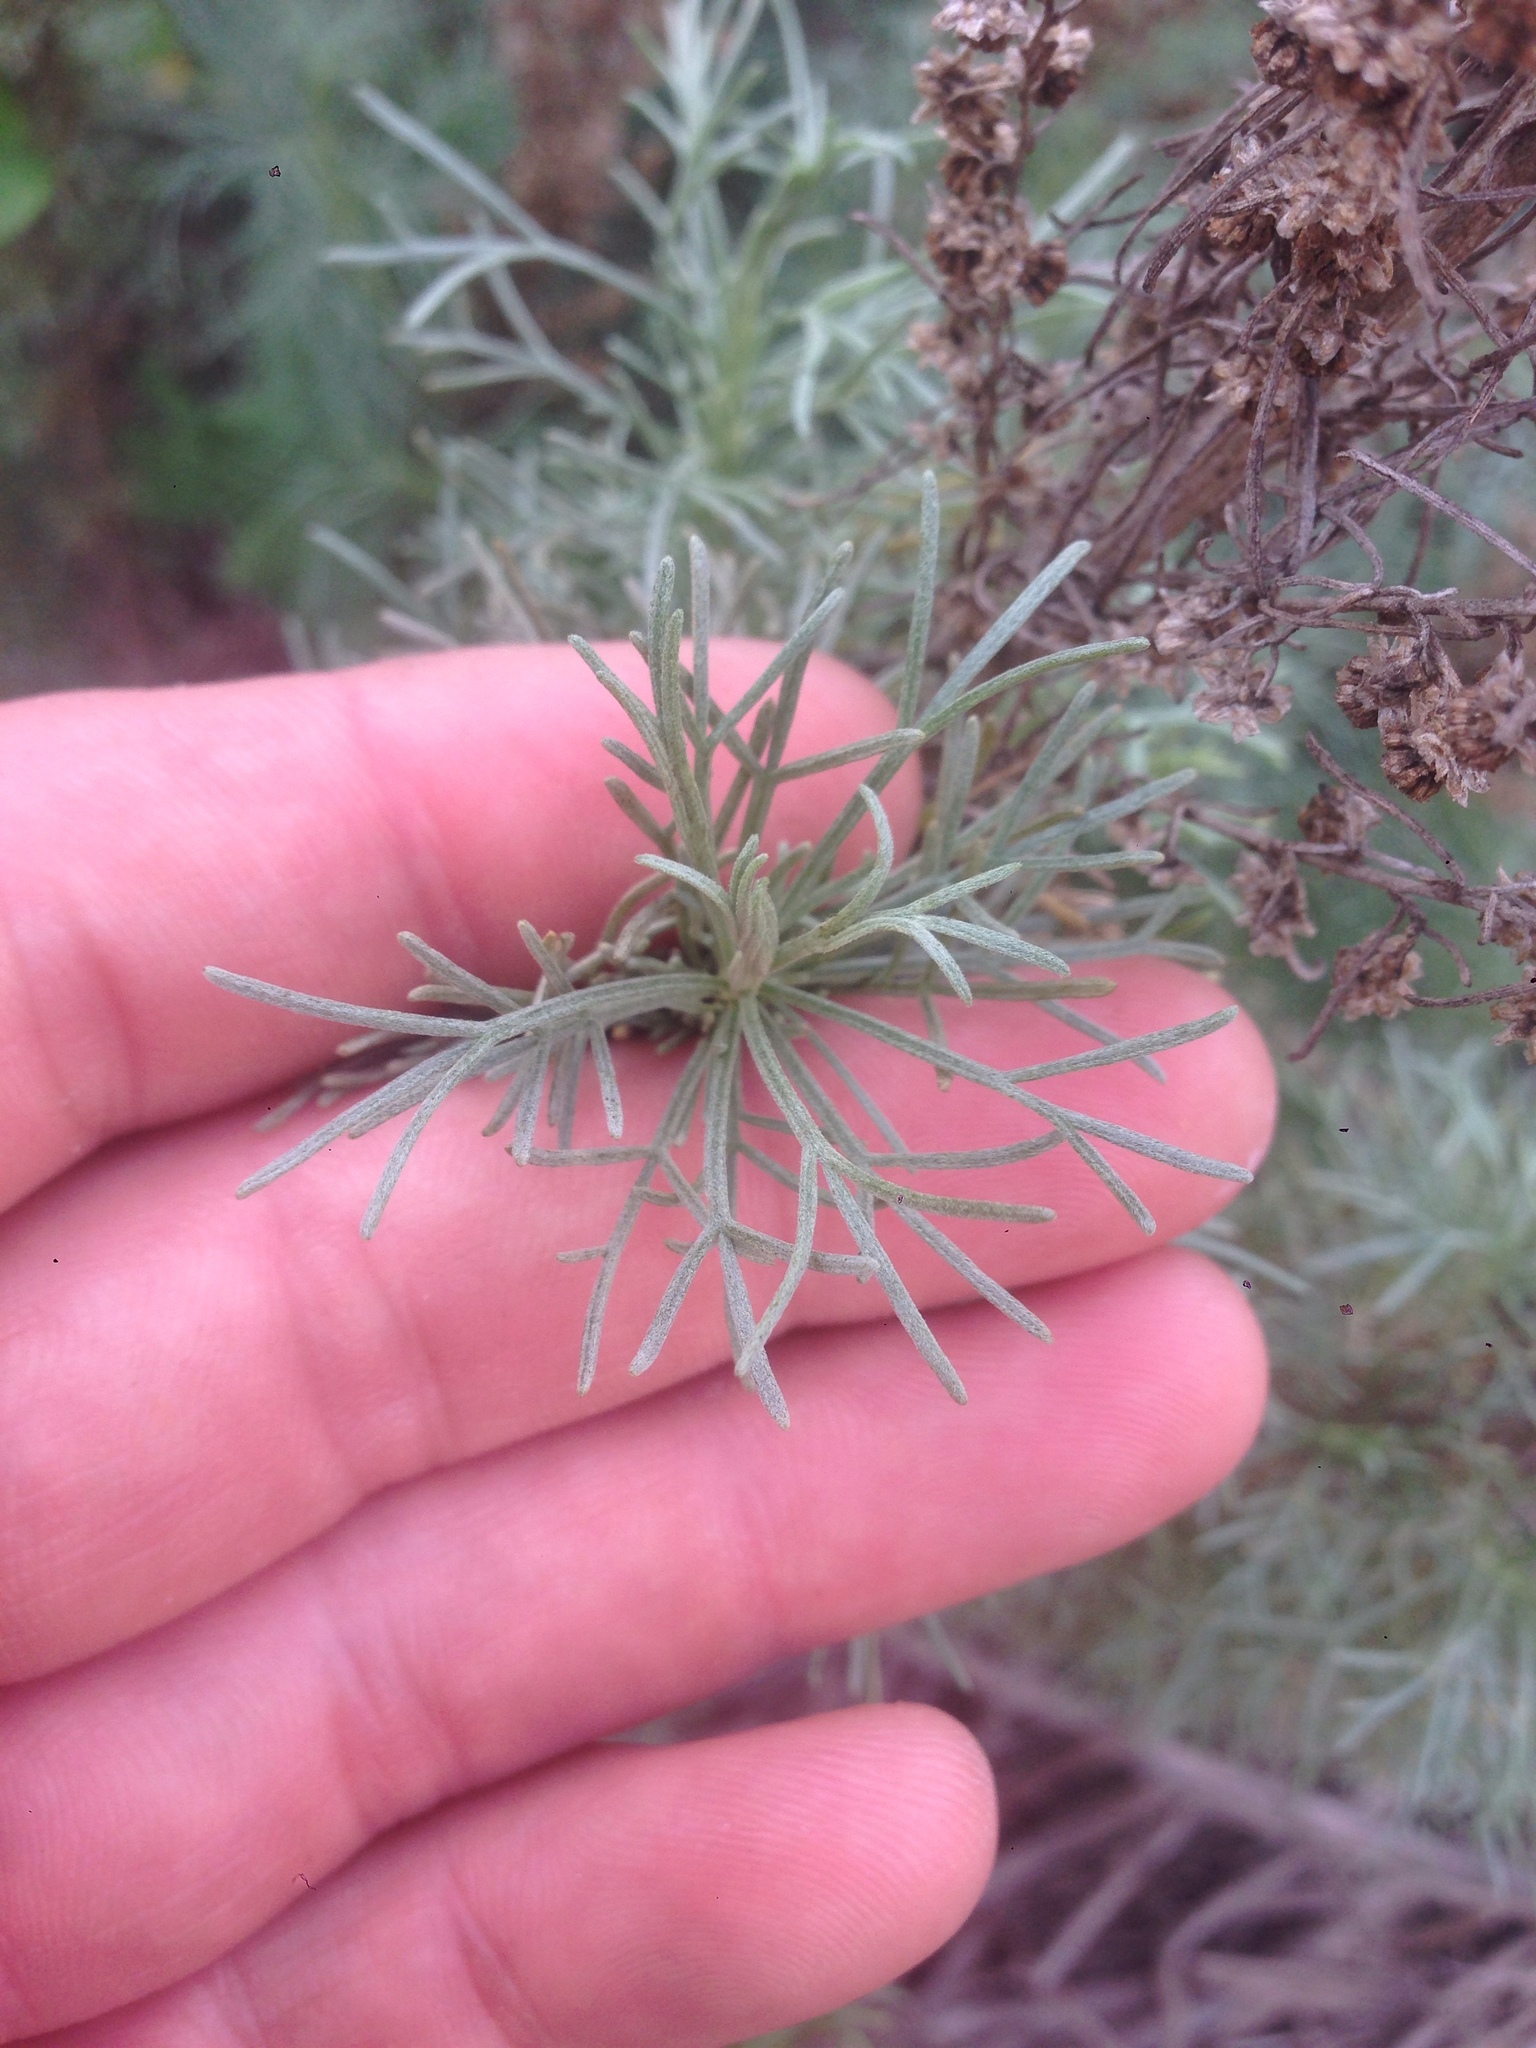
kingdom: Plantae
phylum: Tracheophyta
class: Magnoliopsida
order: Asterales
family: Asteraceae
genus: Artemisia
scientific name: Artemisia californica
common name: California sagebrush
